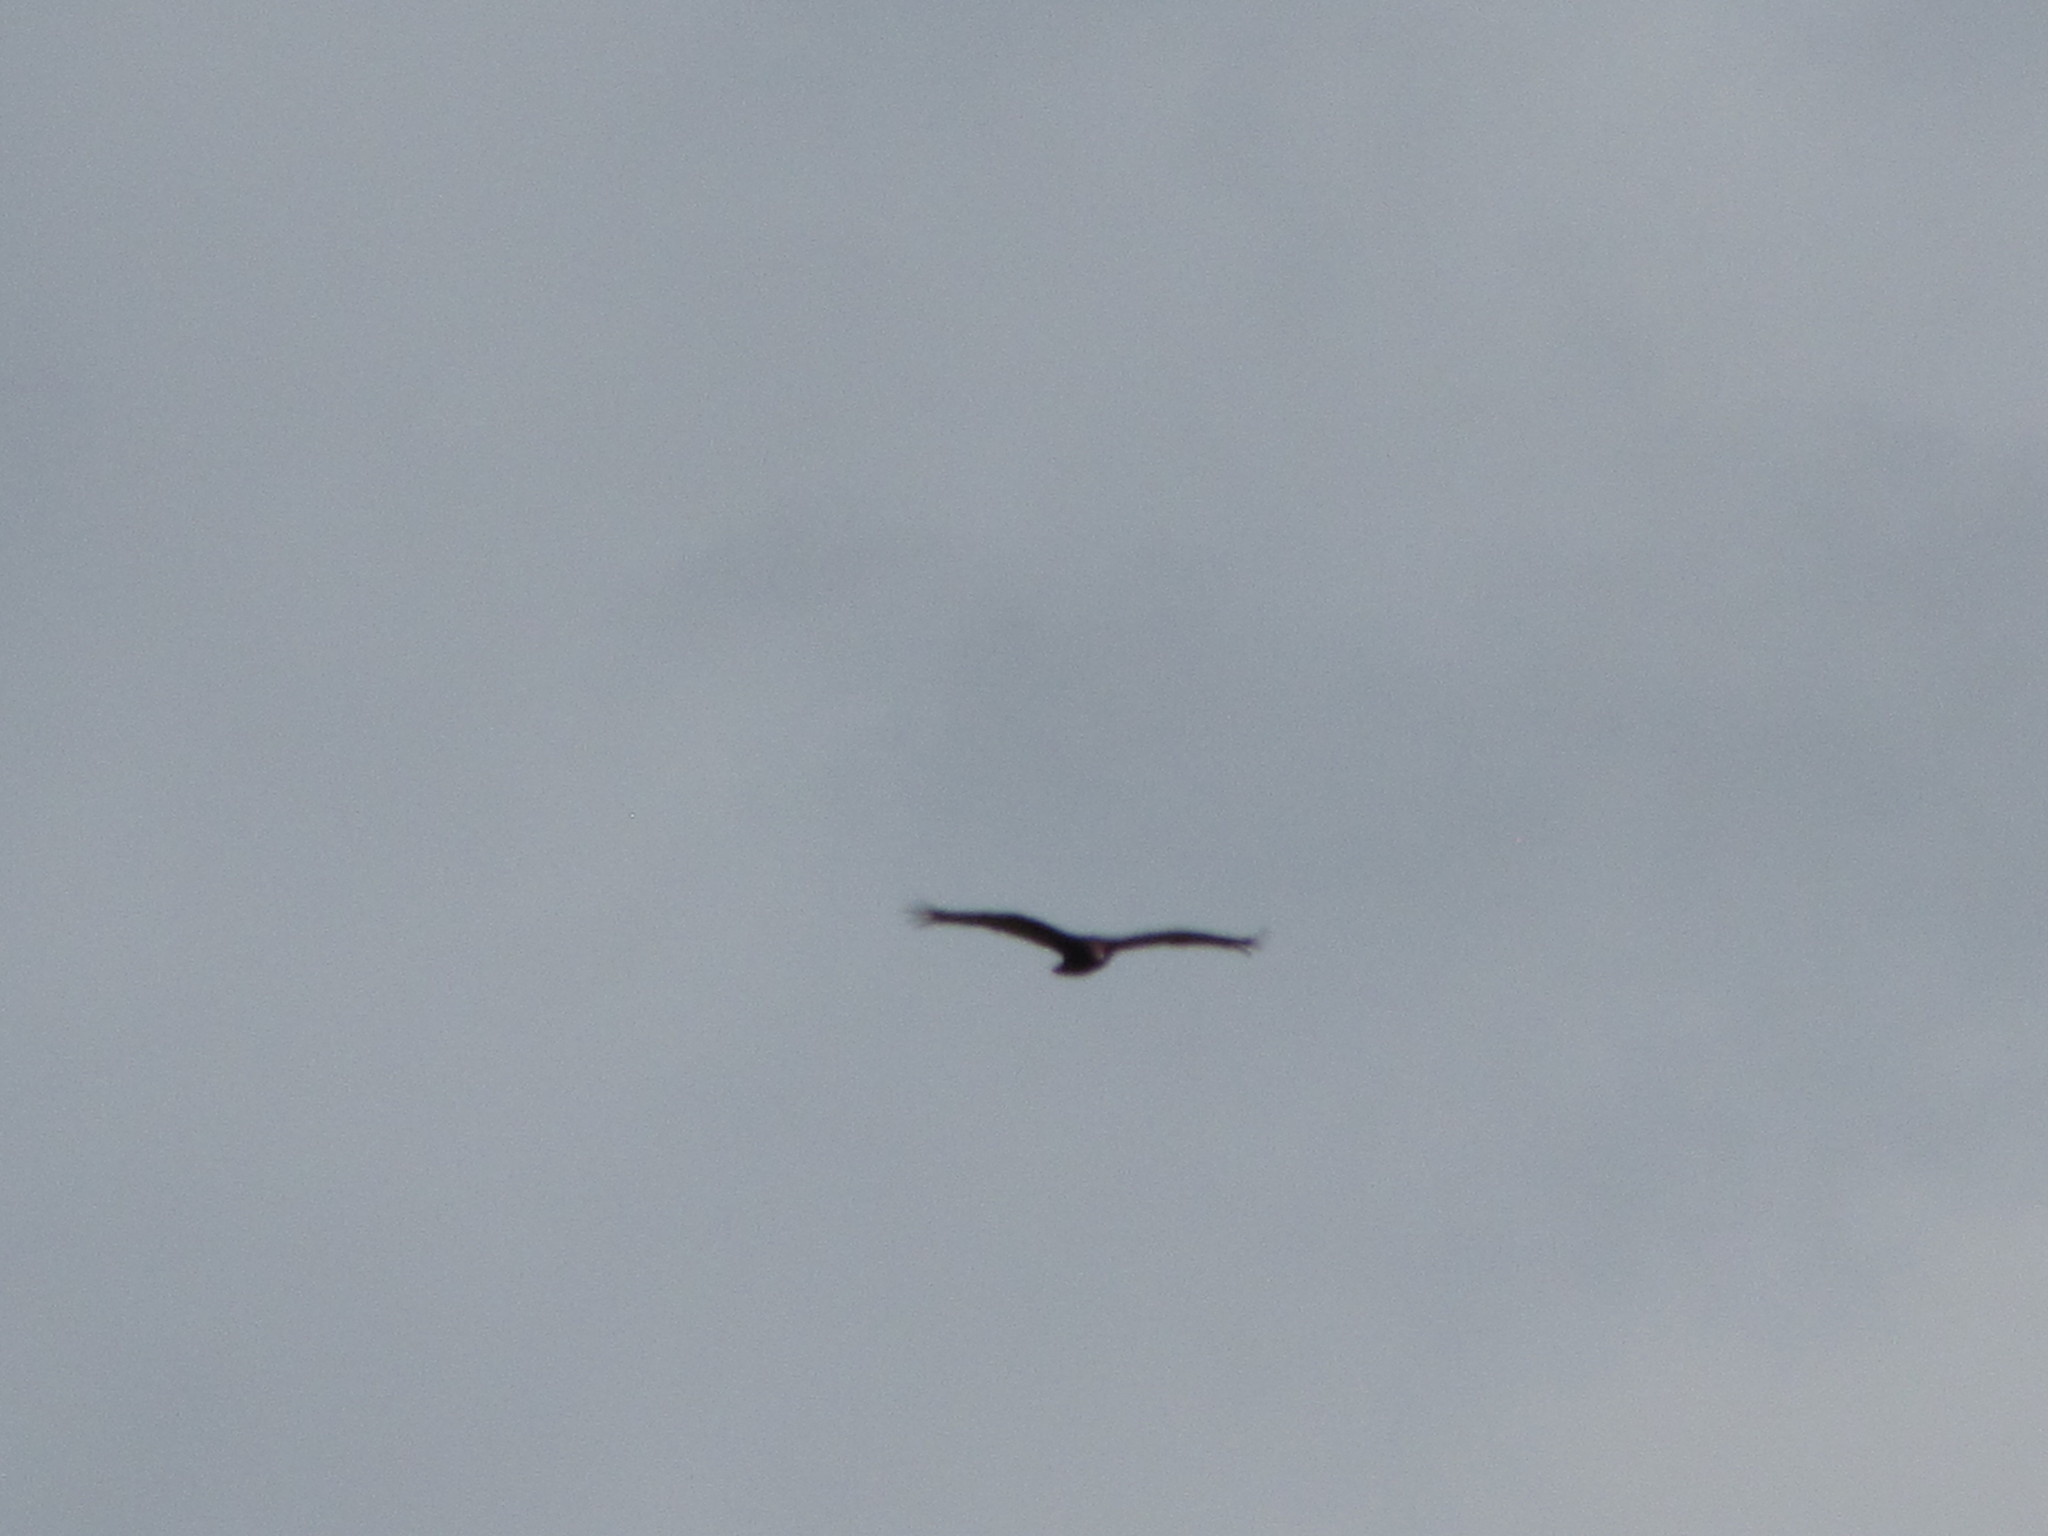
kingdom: Animalia
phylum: Chordata
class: Aves
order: Accipitriformes
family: Cathartidae
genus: Cathartes
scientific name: Cathartes aura
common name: Turkey vulture
